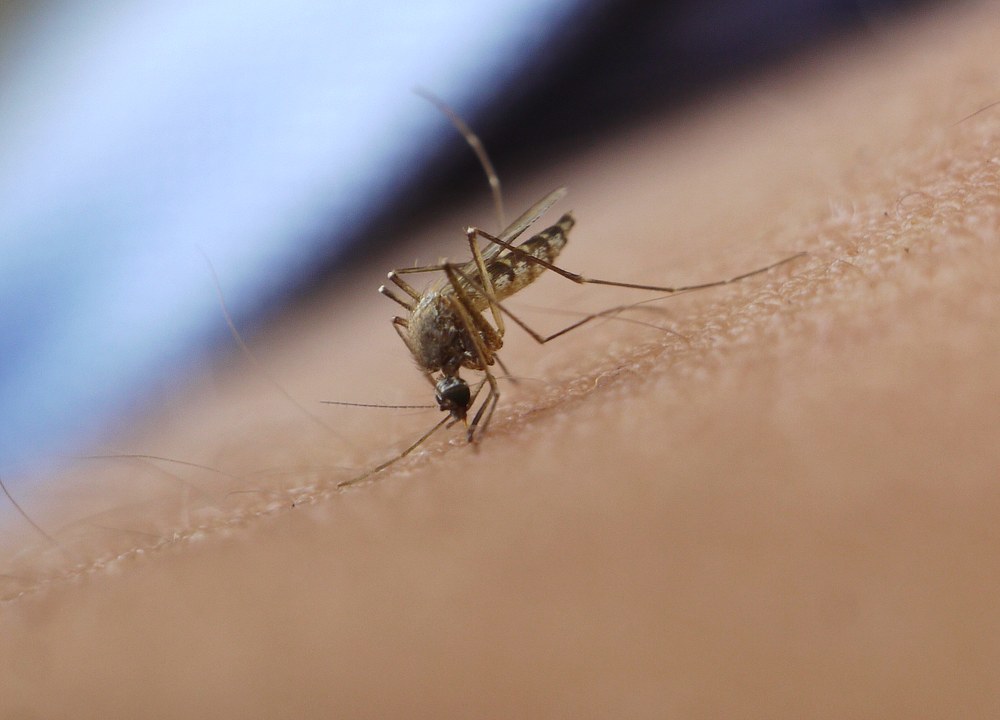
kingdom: Animalia
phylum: Arthropoda
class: Insecta
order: Diptera
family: Culicidae
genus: Aedes
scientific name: Aedes vexans
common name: Inland floodwater mosquito
